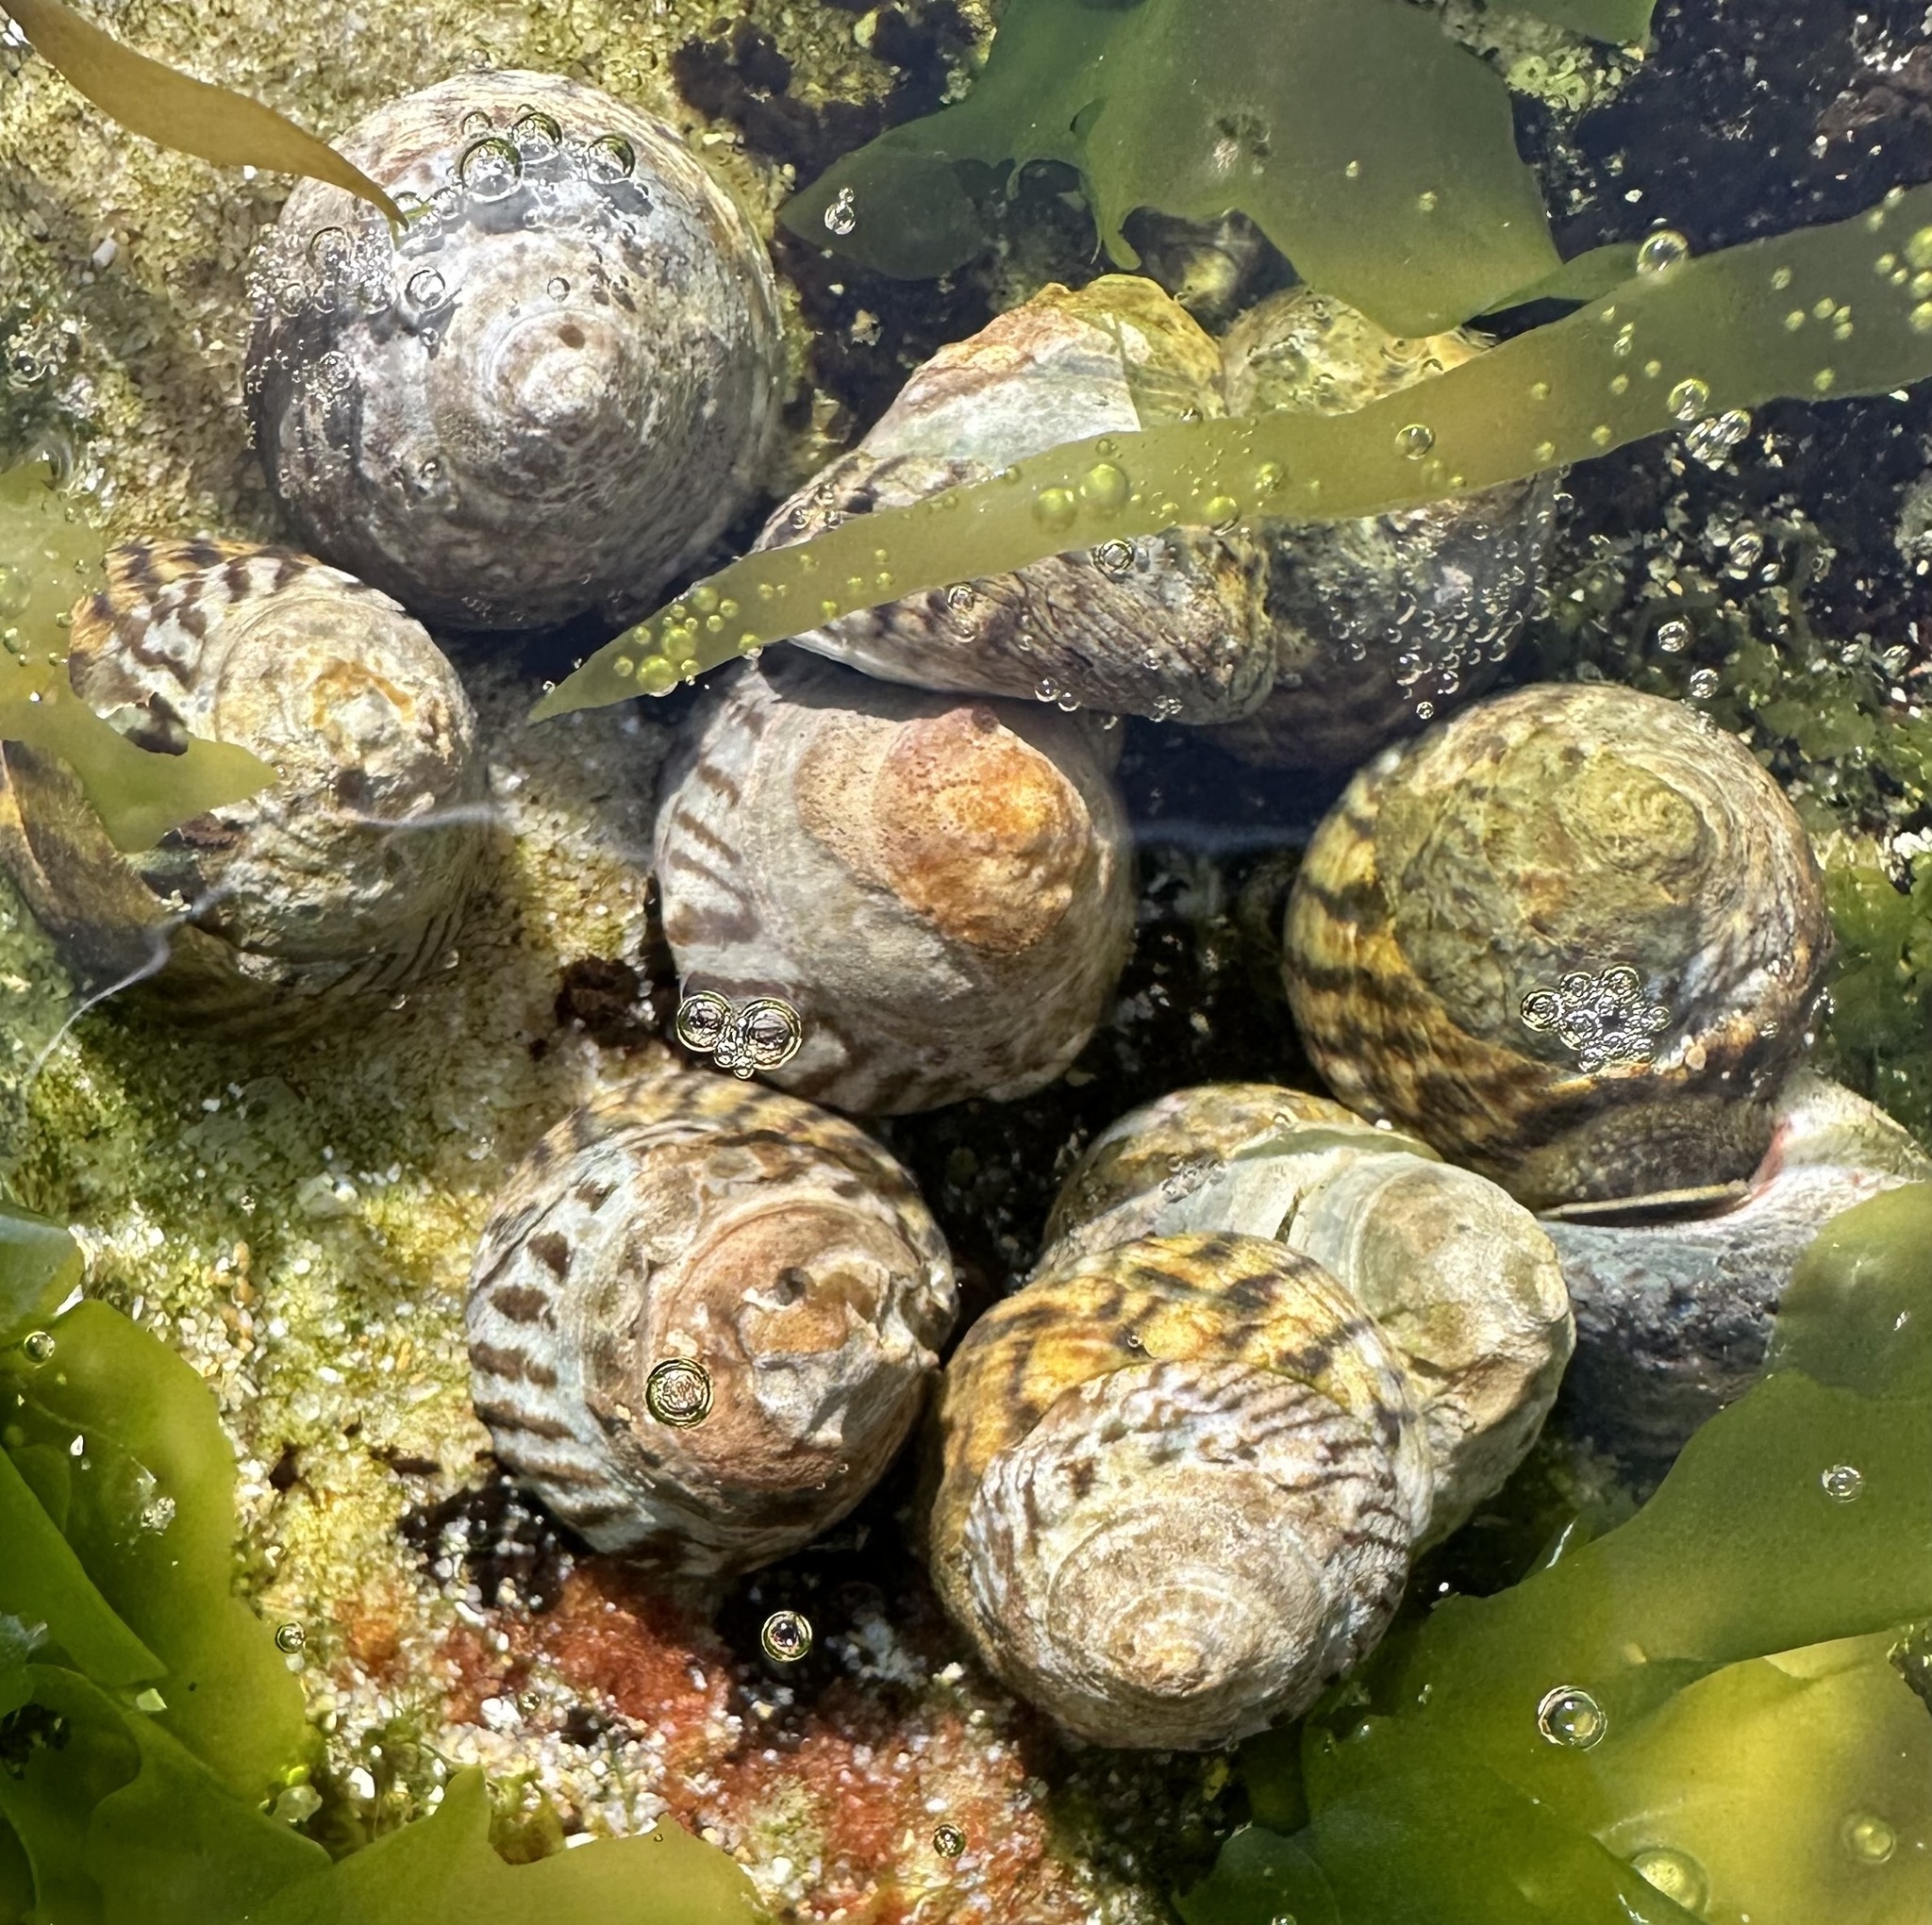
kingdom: Animalia
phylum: Mollusca
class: Gastropoda
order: Littorinimorpha
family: Littorinidae
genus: Bembicium
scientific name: Bembicium nanum
